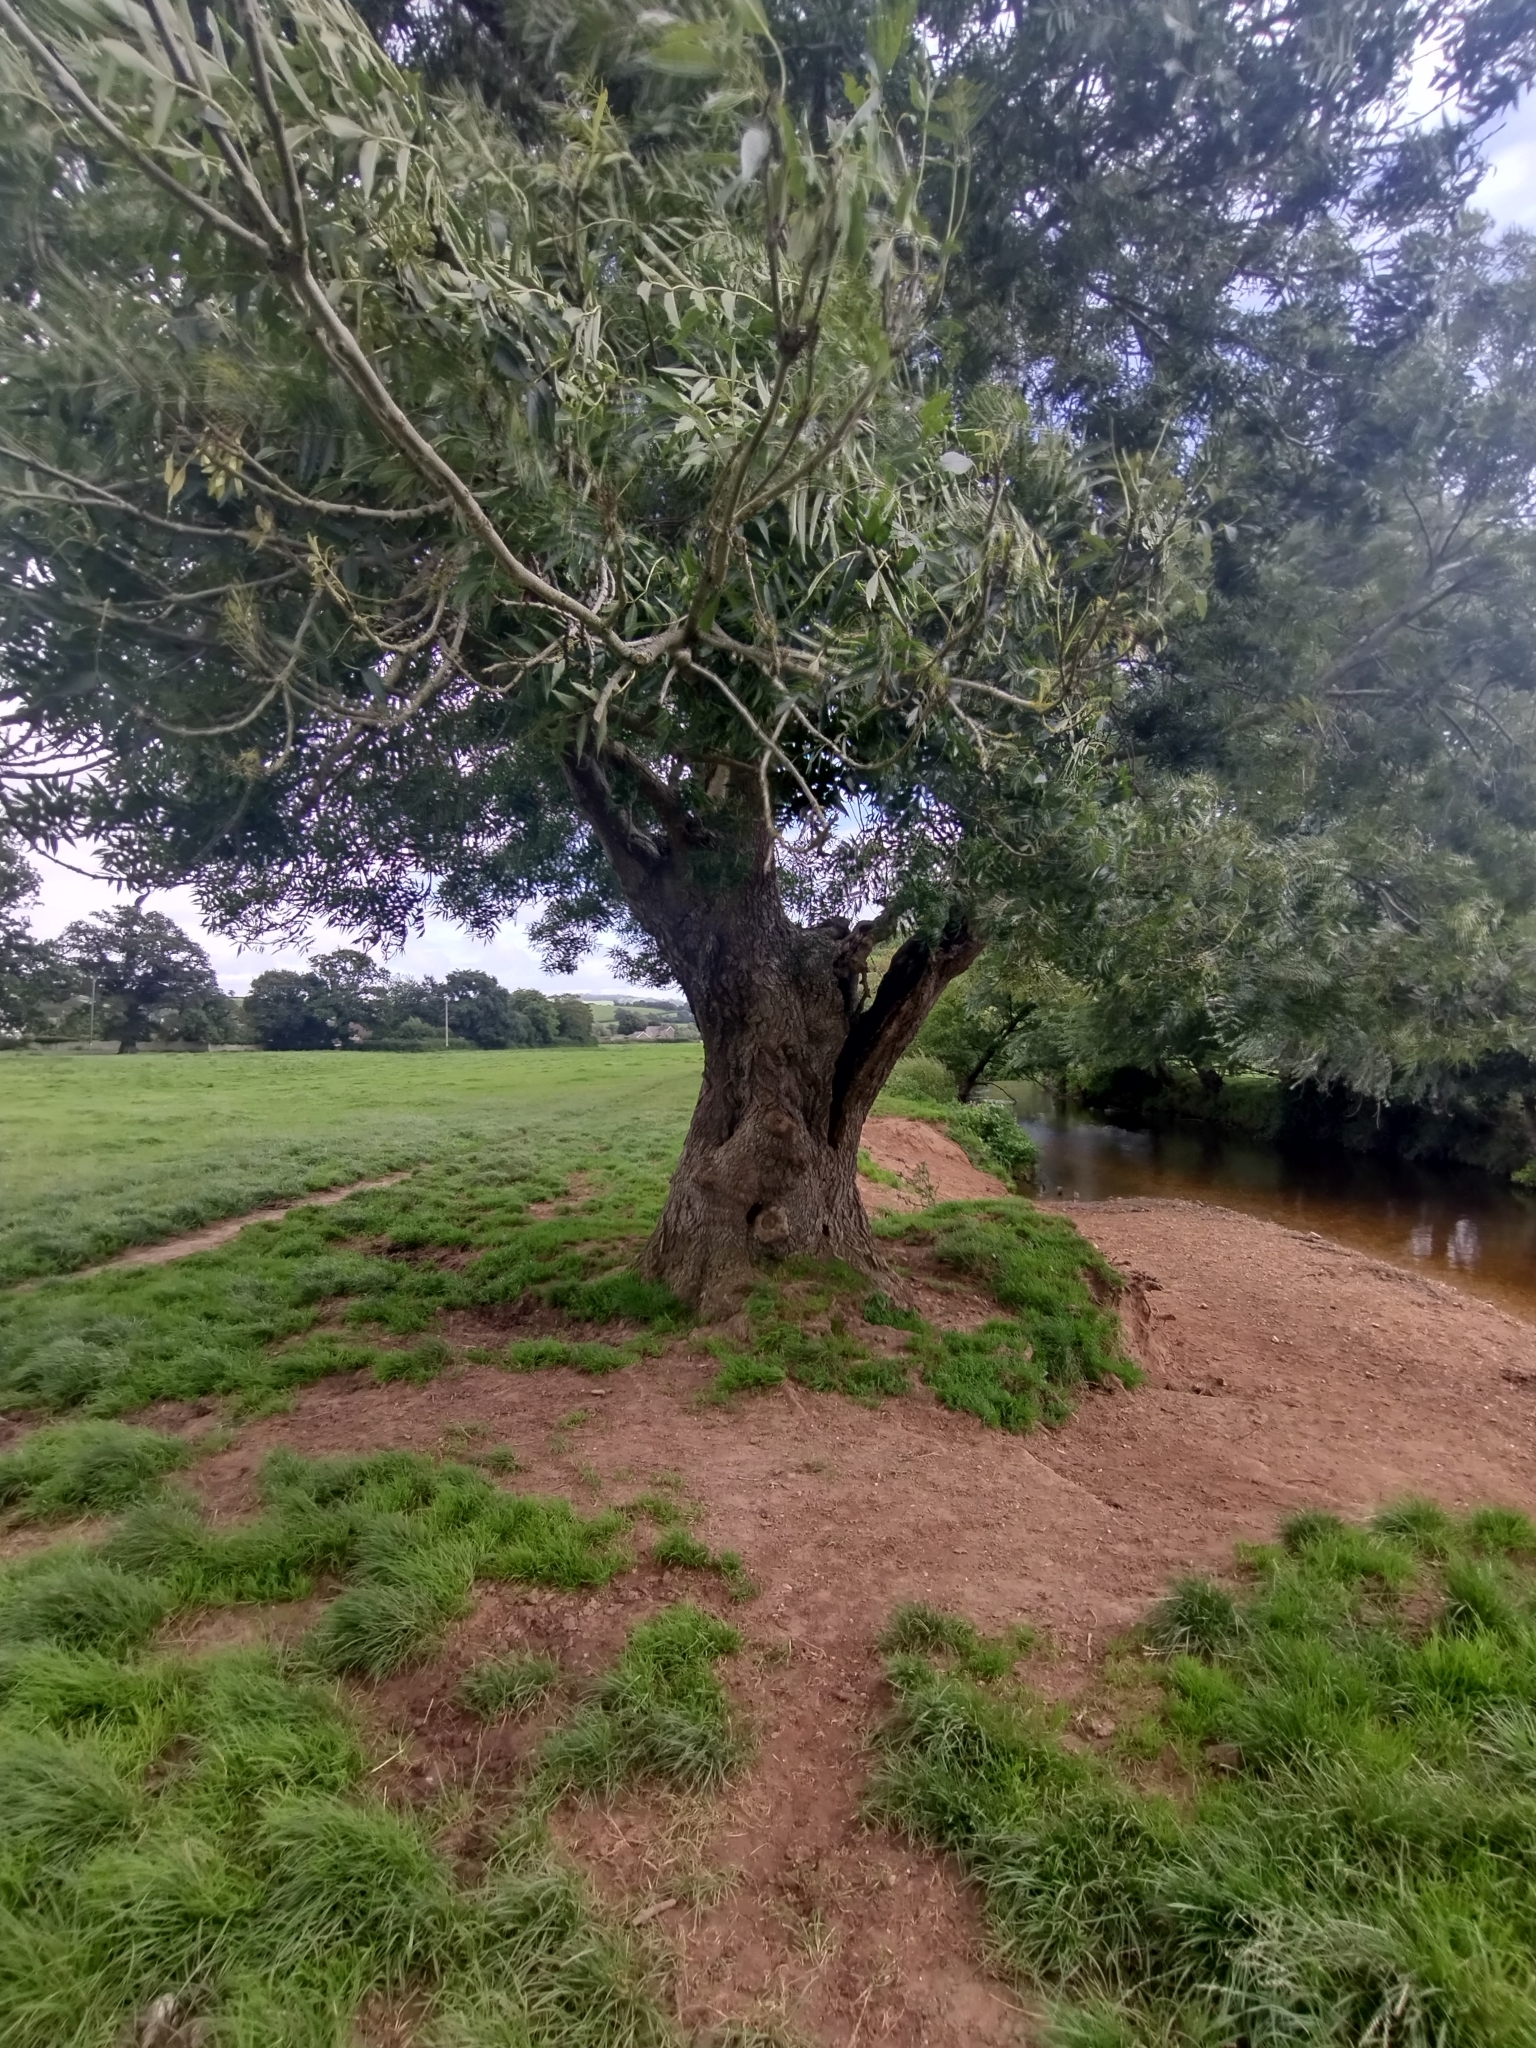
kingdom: Plantae
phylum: Tracheophyta
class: Magnoliopsida
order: Lamiales
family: Oleaceae
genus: Fraxinus
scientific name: Fraxinus excelsior
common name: European ash
